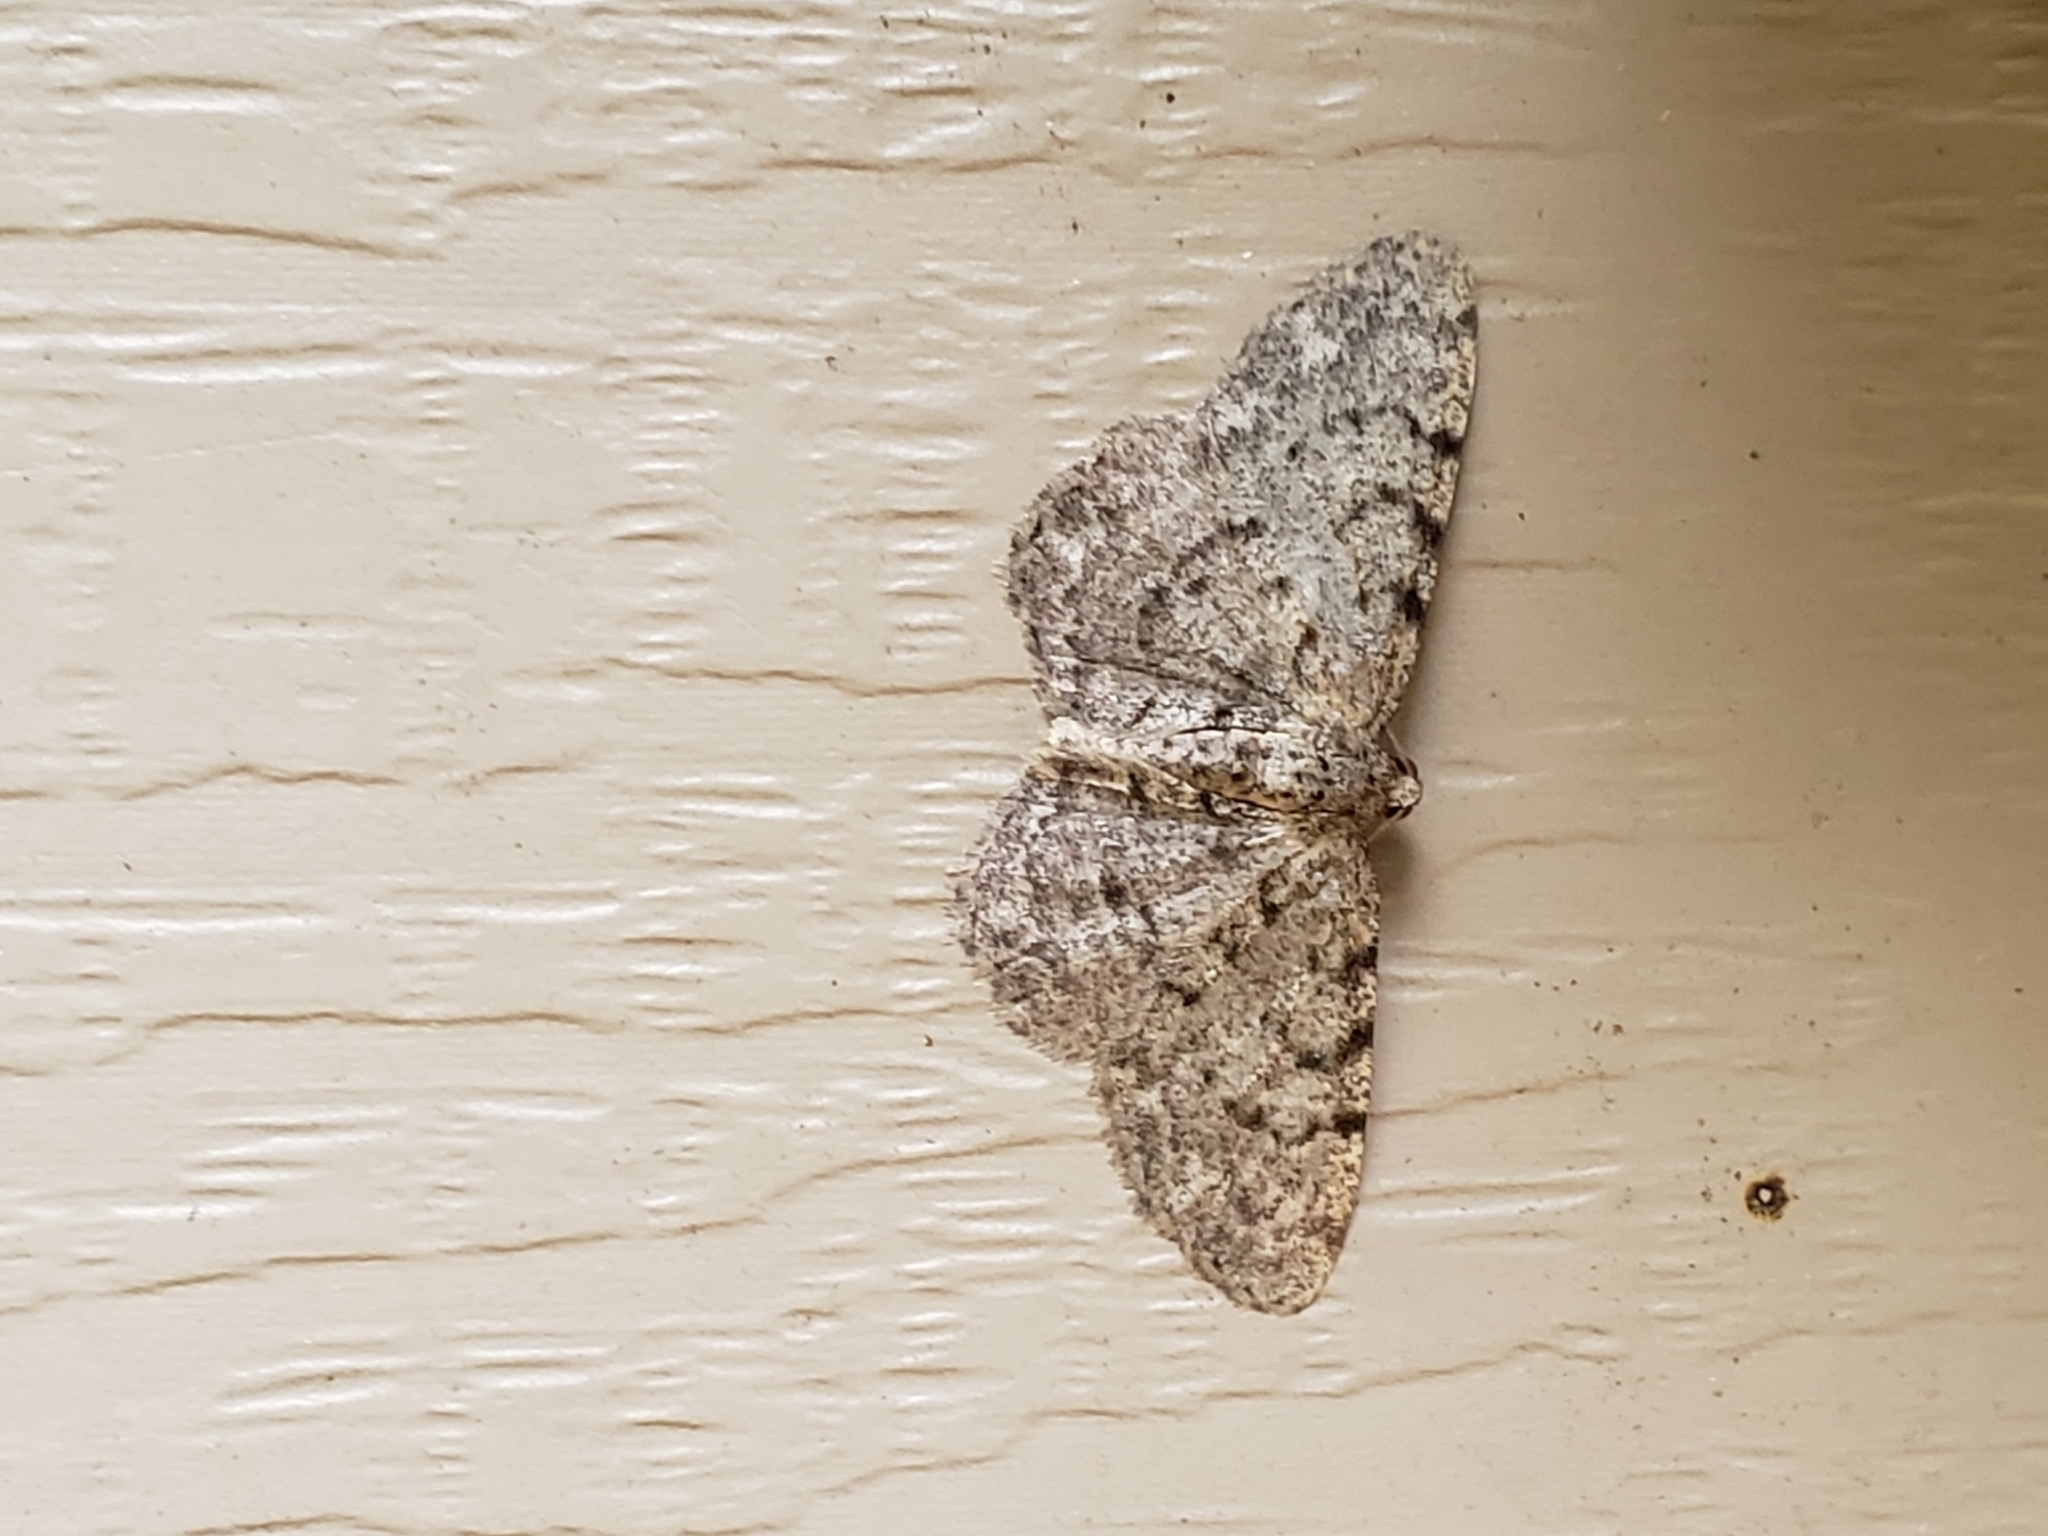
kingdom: Animalia
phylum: Arthropoda
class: Insecta
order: Lepidoptera
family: Geometridae
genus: Aethalura
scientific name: Aethalura intertexta
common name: Four-barred gray
